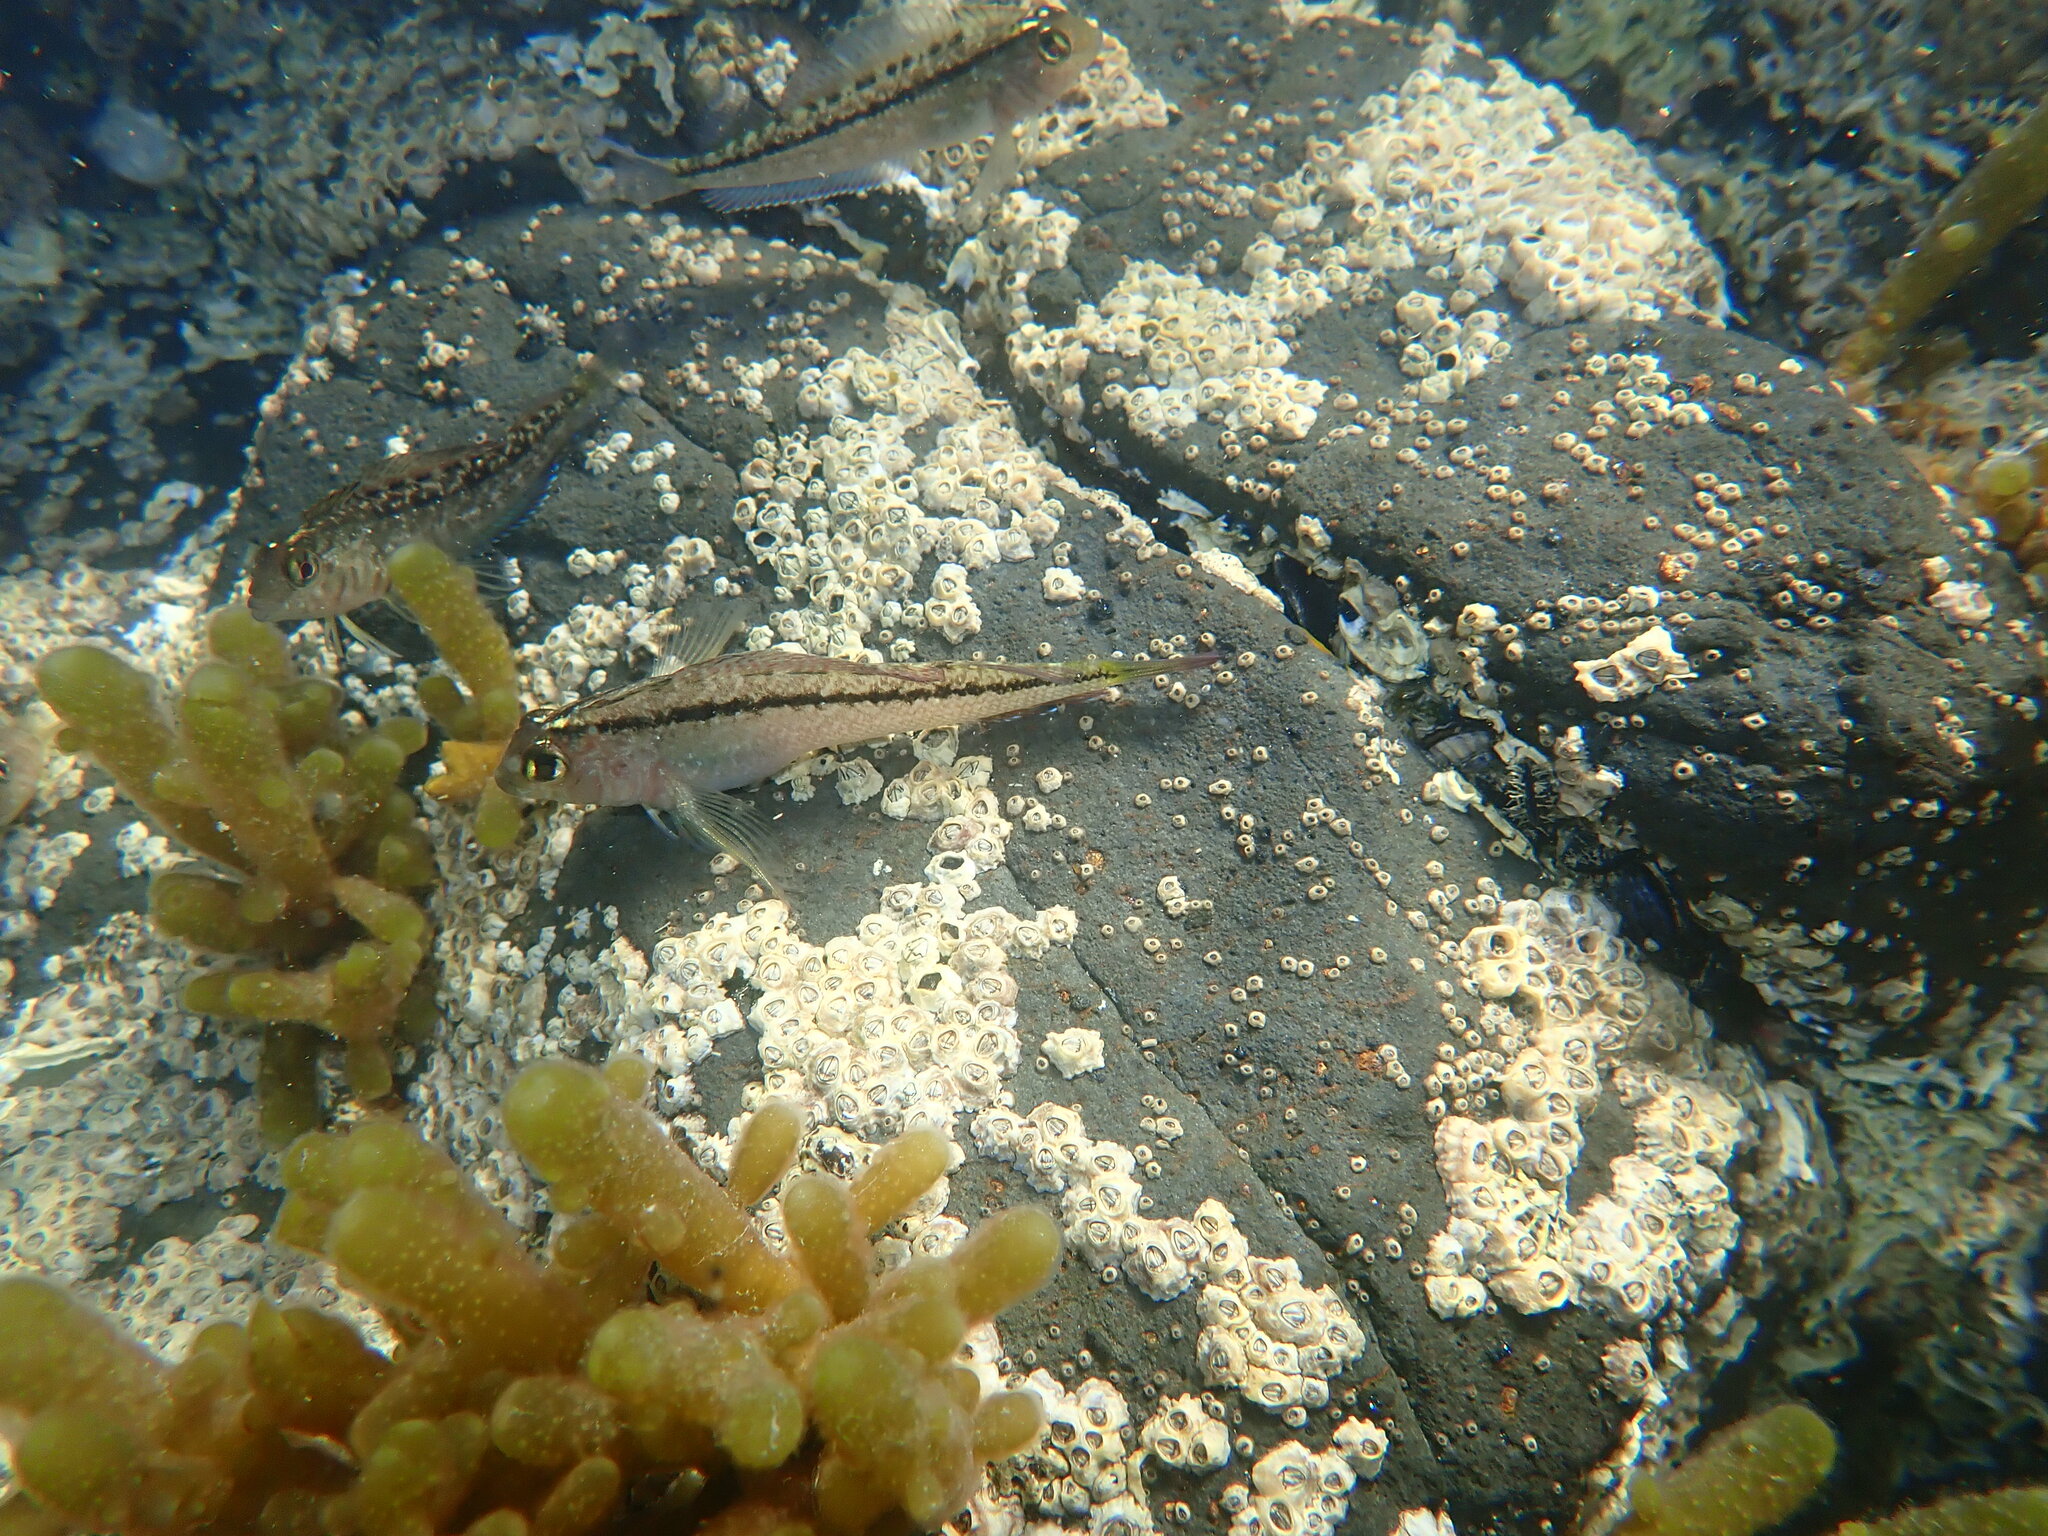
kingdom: Animalia
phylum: Chordata
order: Perciformes
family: Tripterygiidae
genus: Forsterygion
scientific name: Forsterygion lapillum
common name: Common triplefin
